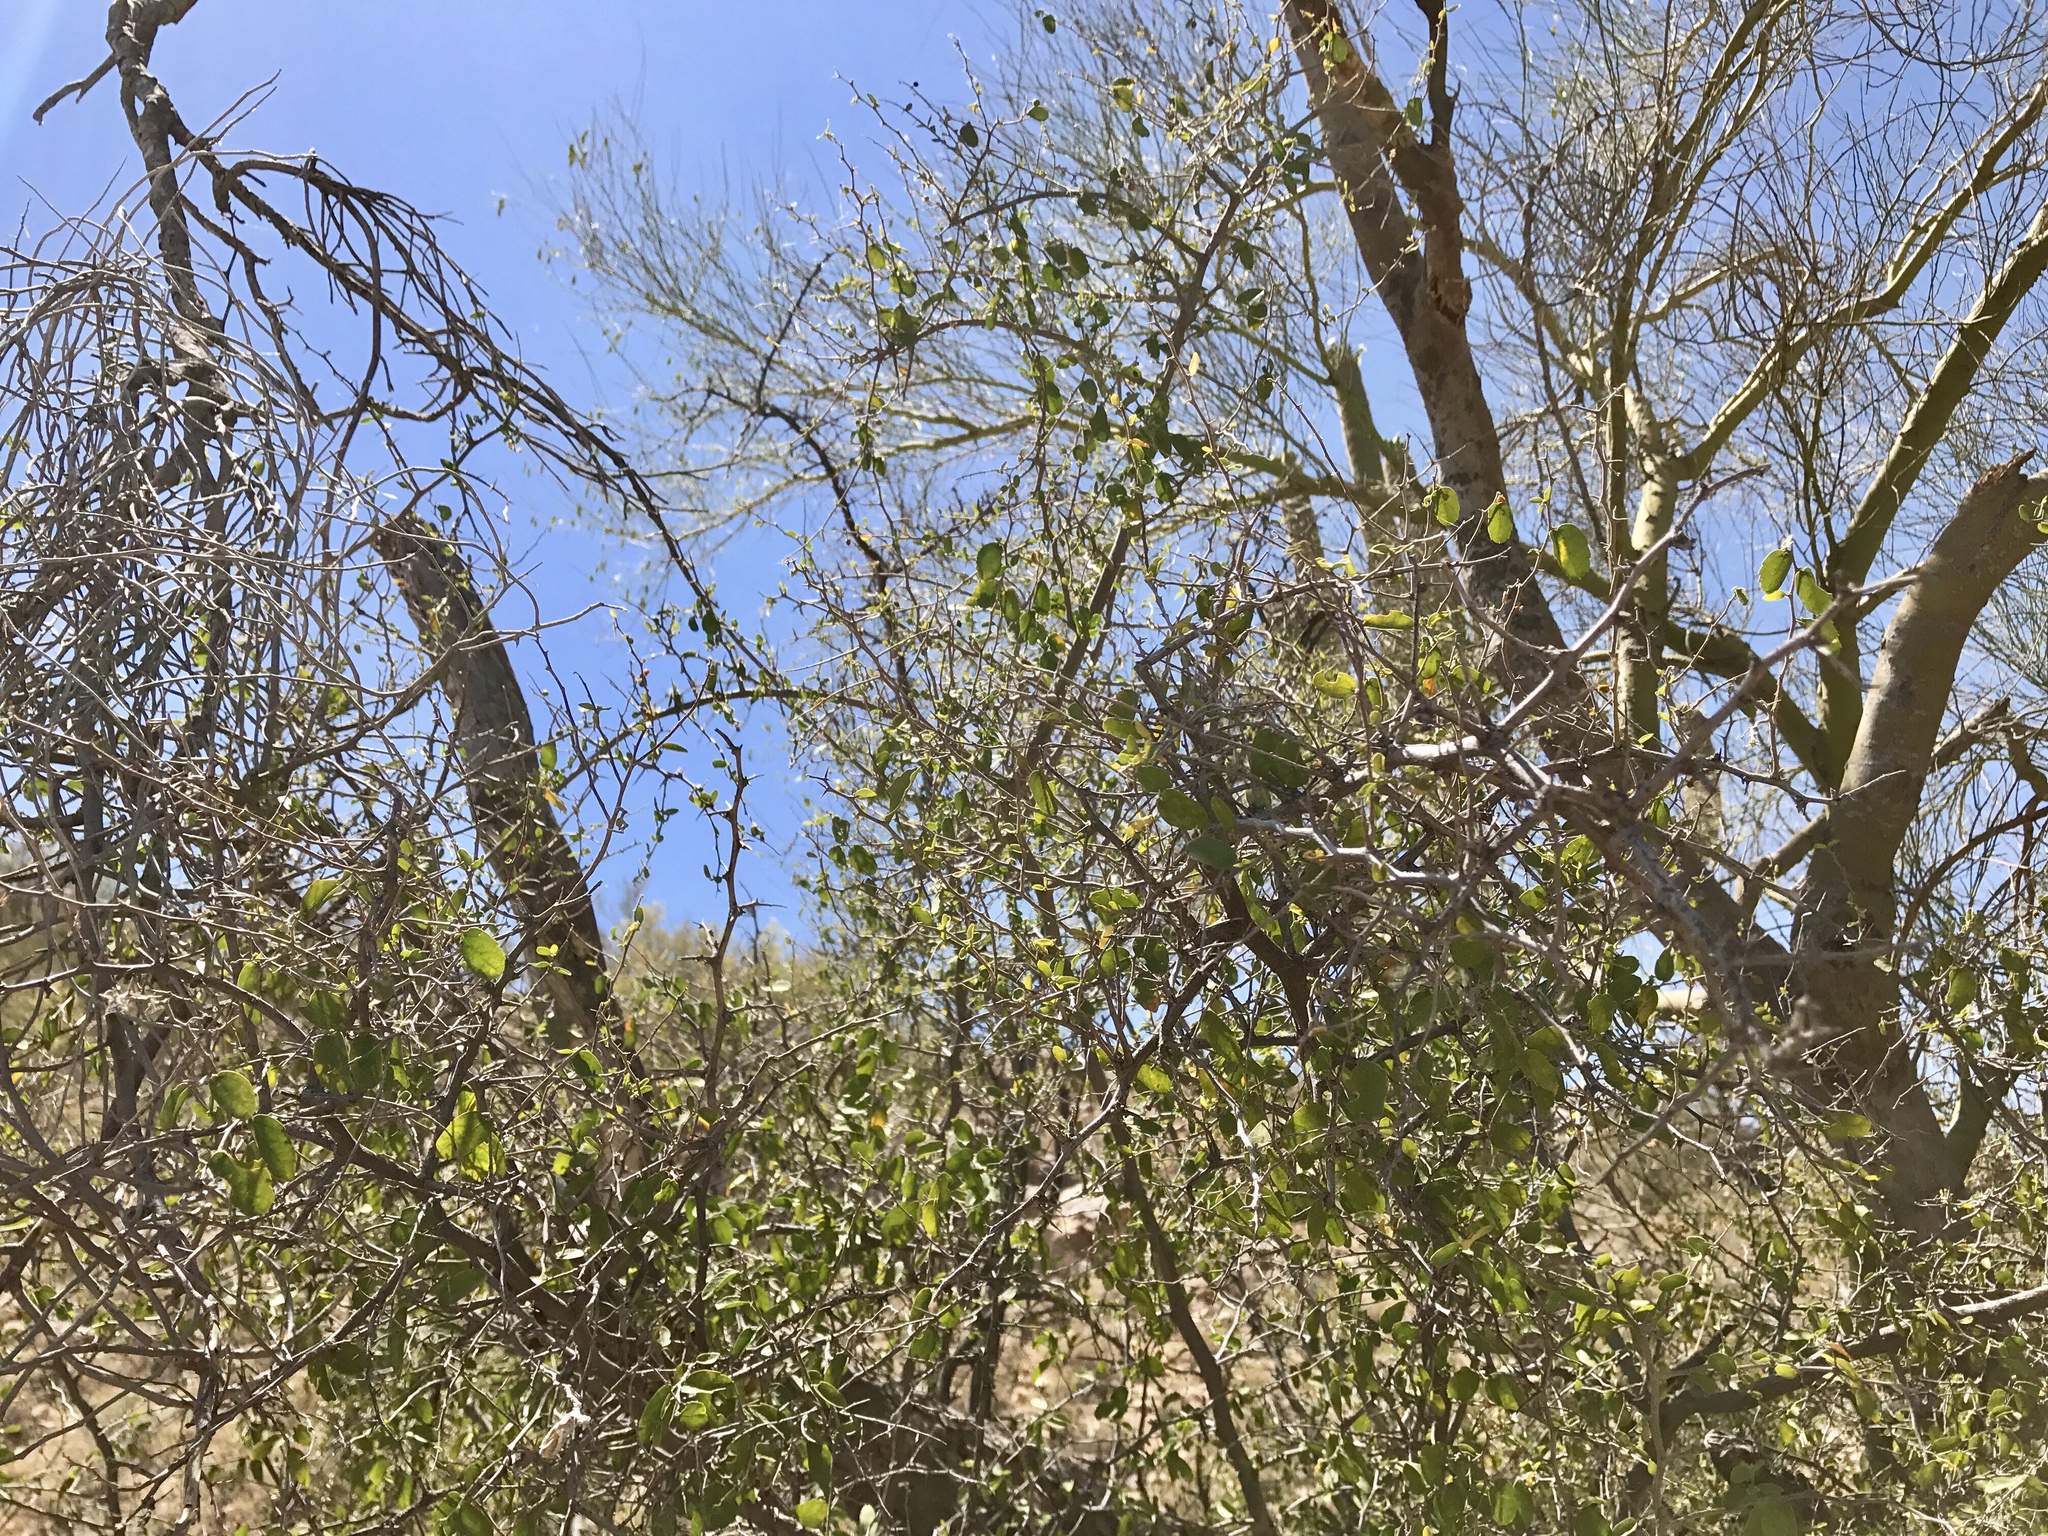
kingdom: Plantae
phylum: Tracheophyta
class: Magnoliopsida
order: Rosales
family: Cannabaceae
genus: Celtis
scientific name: Celtis pallida
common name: Desert hackberry
